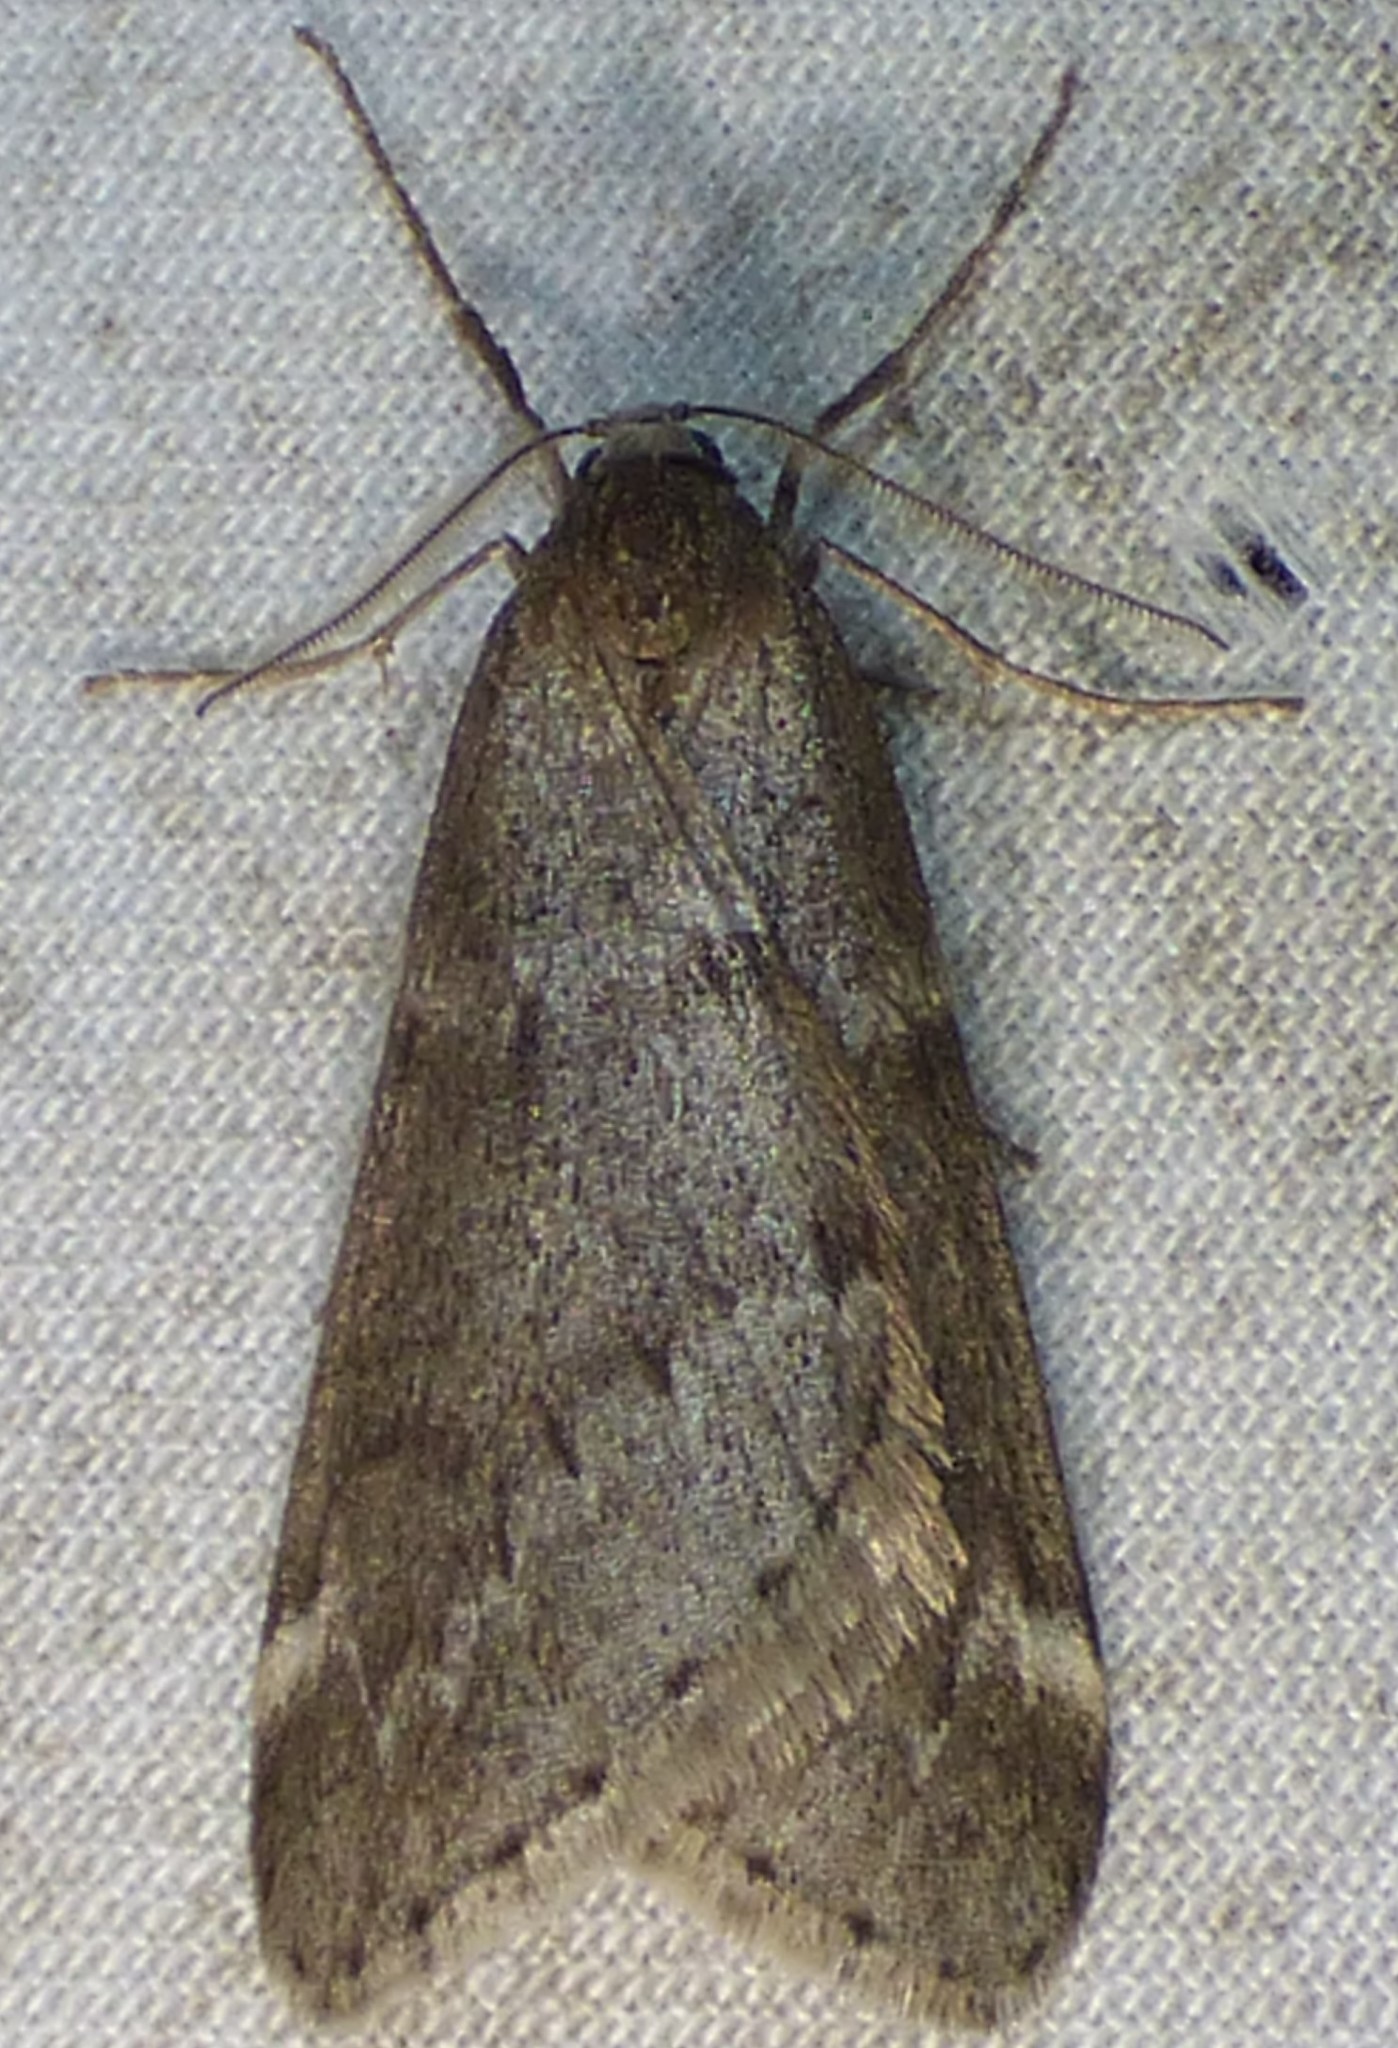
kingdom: Animalia
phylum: Arthropoda
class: Insecta
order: Lepidoptera
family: Geometridae
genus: Alsophila
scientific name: Alsophila pometaria
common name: Fall cankerworm
